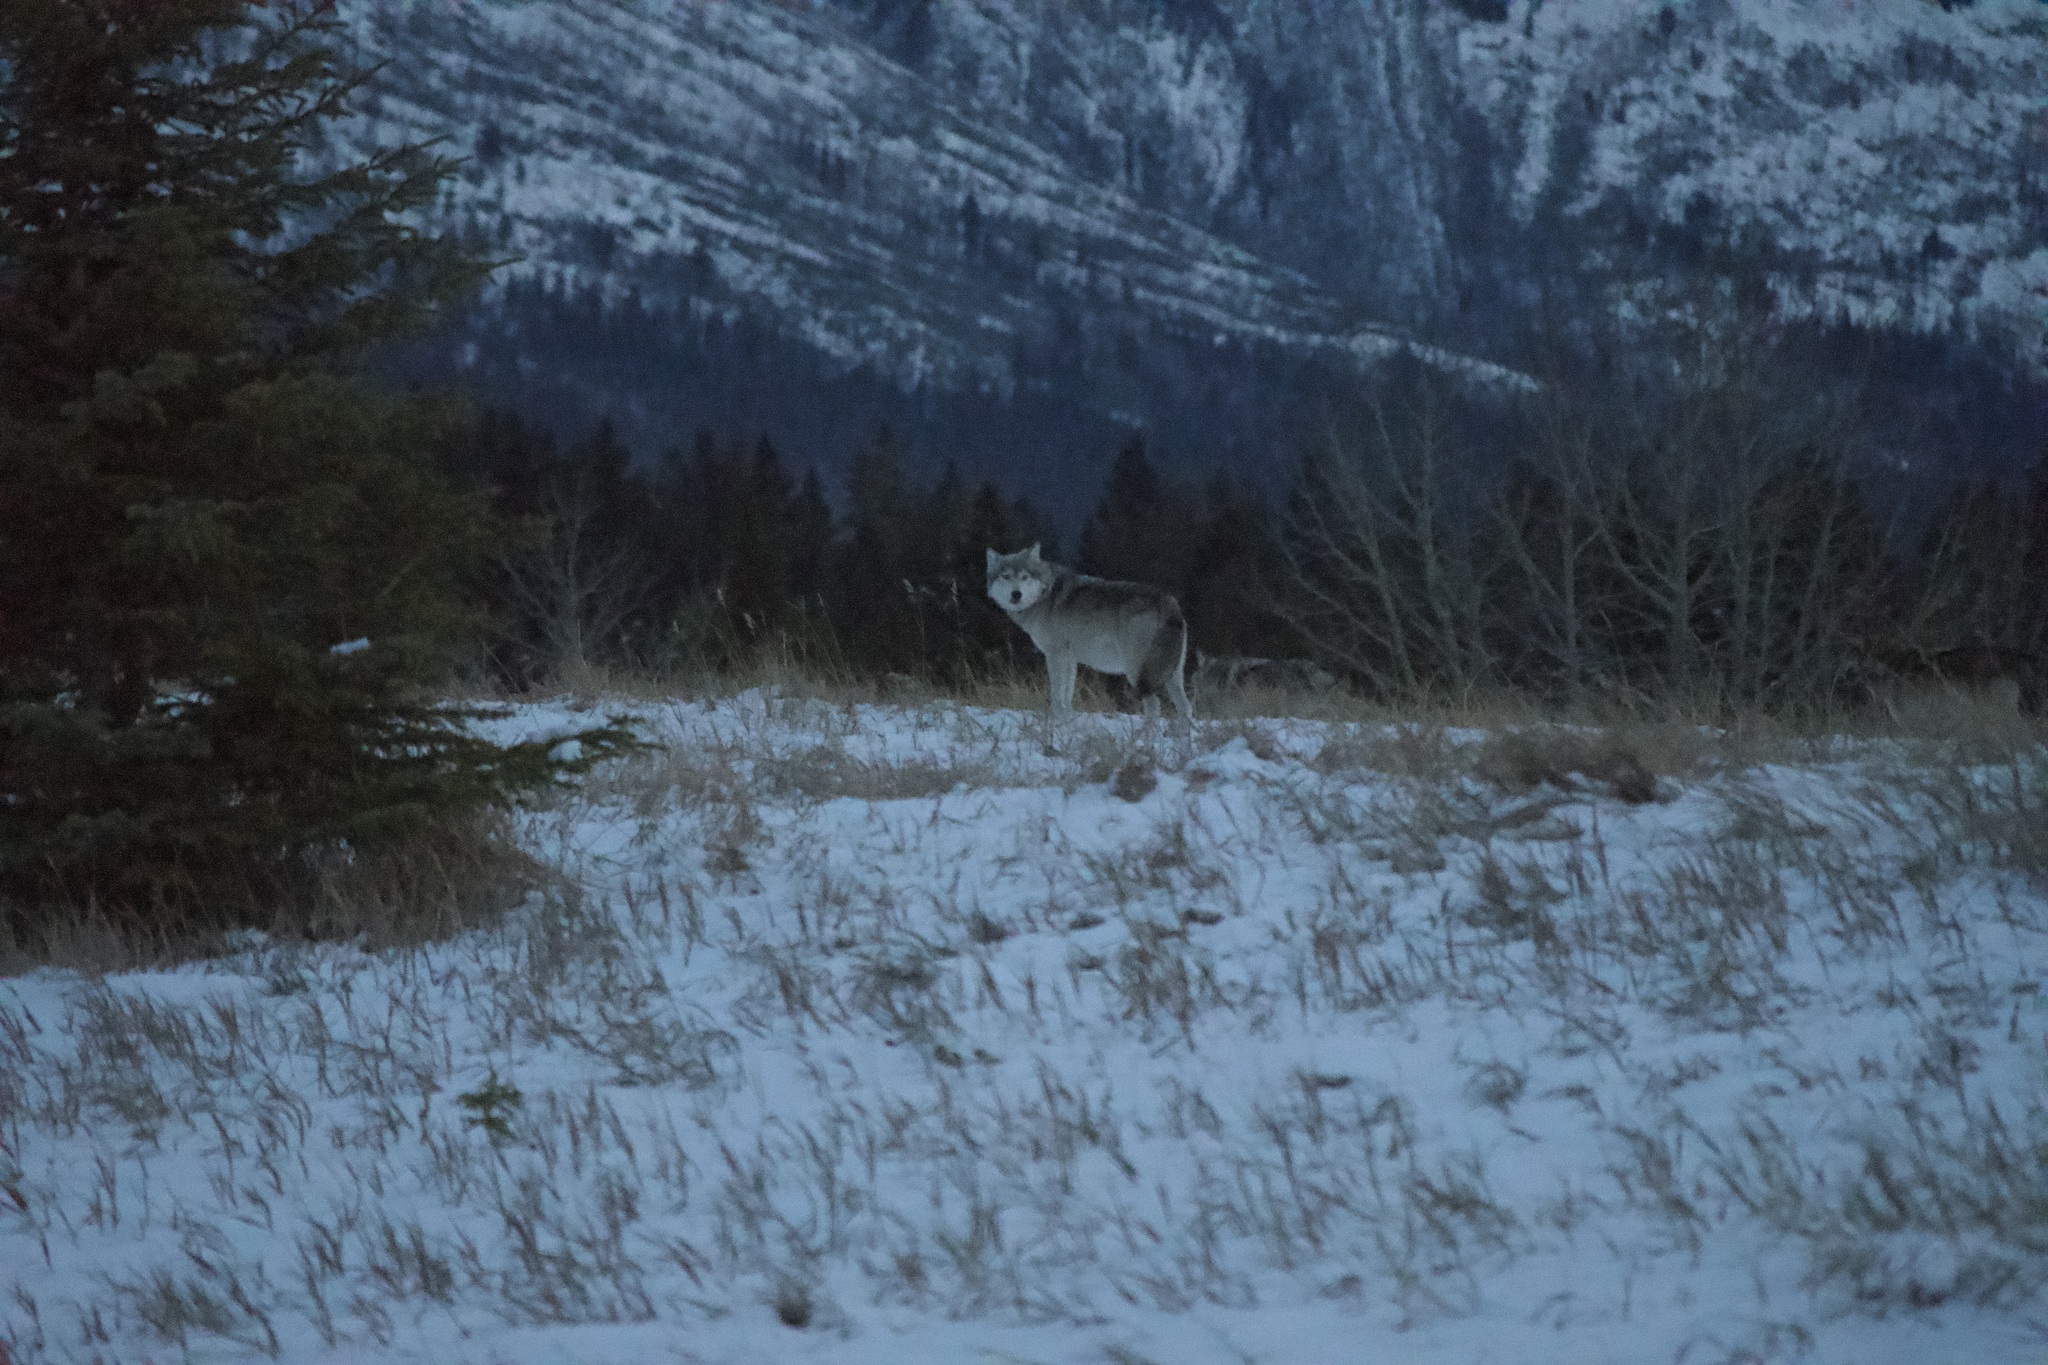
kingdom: Animalia
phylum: Chordata
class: Mammalia
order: Carnivora
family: Canidae
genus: Canis
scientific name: Canis lupus
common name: Gray wolf
